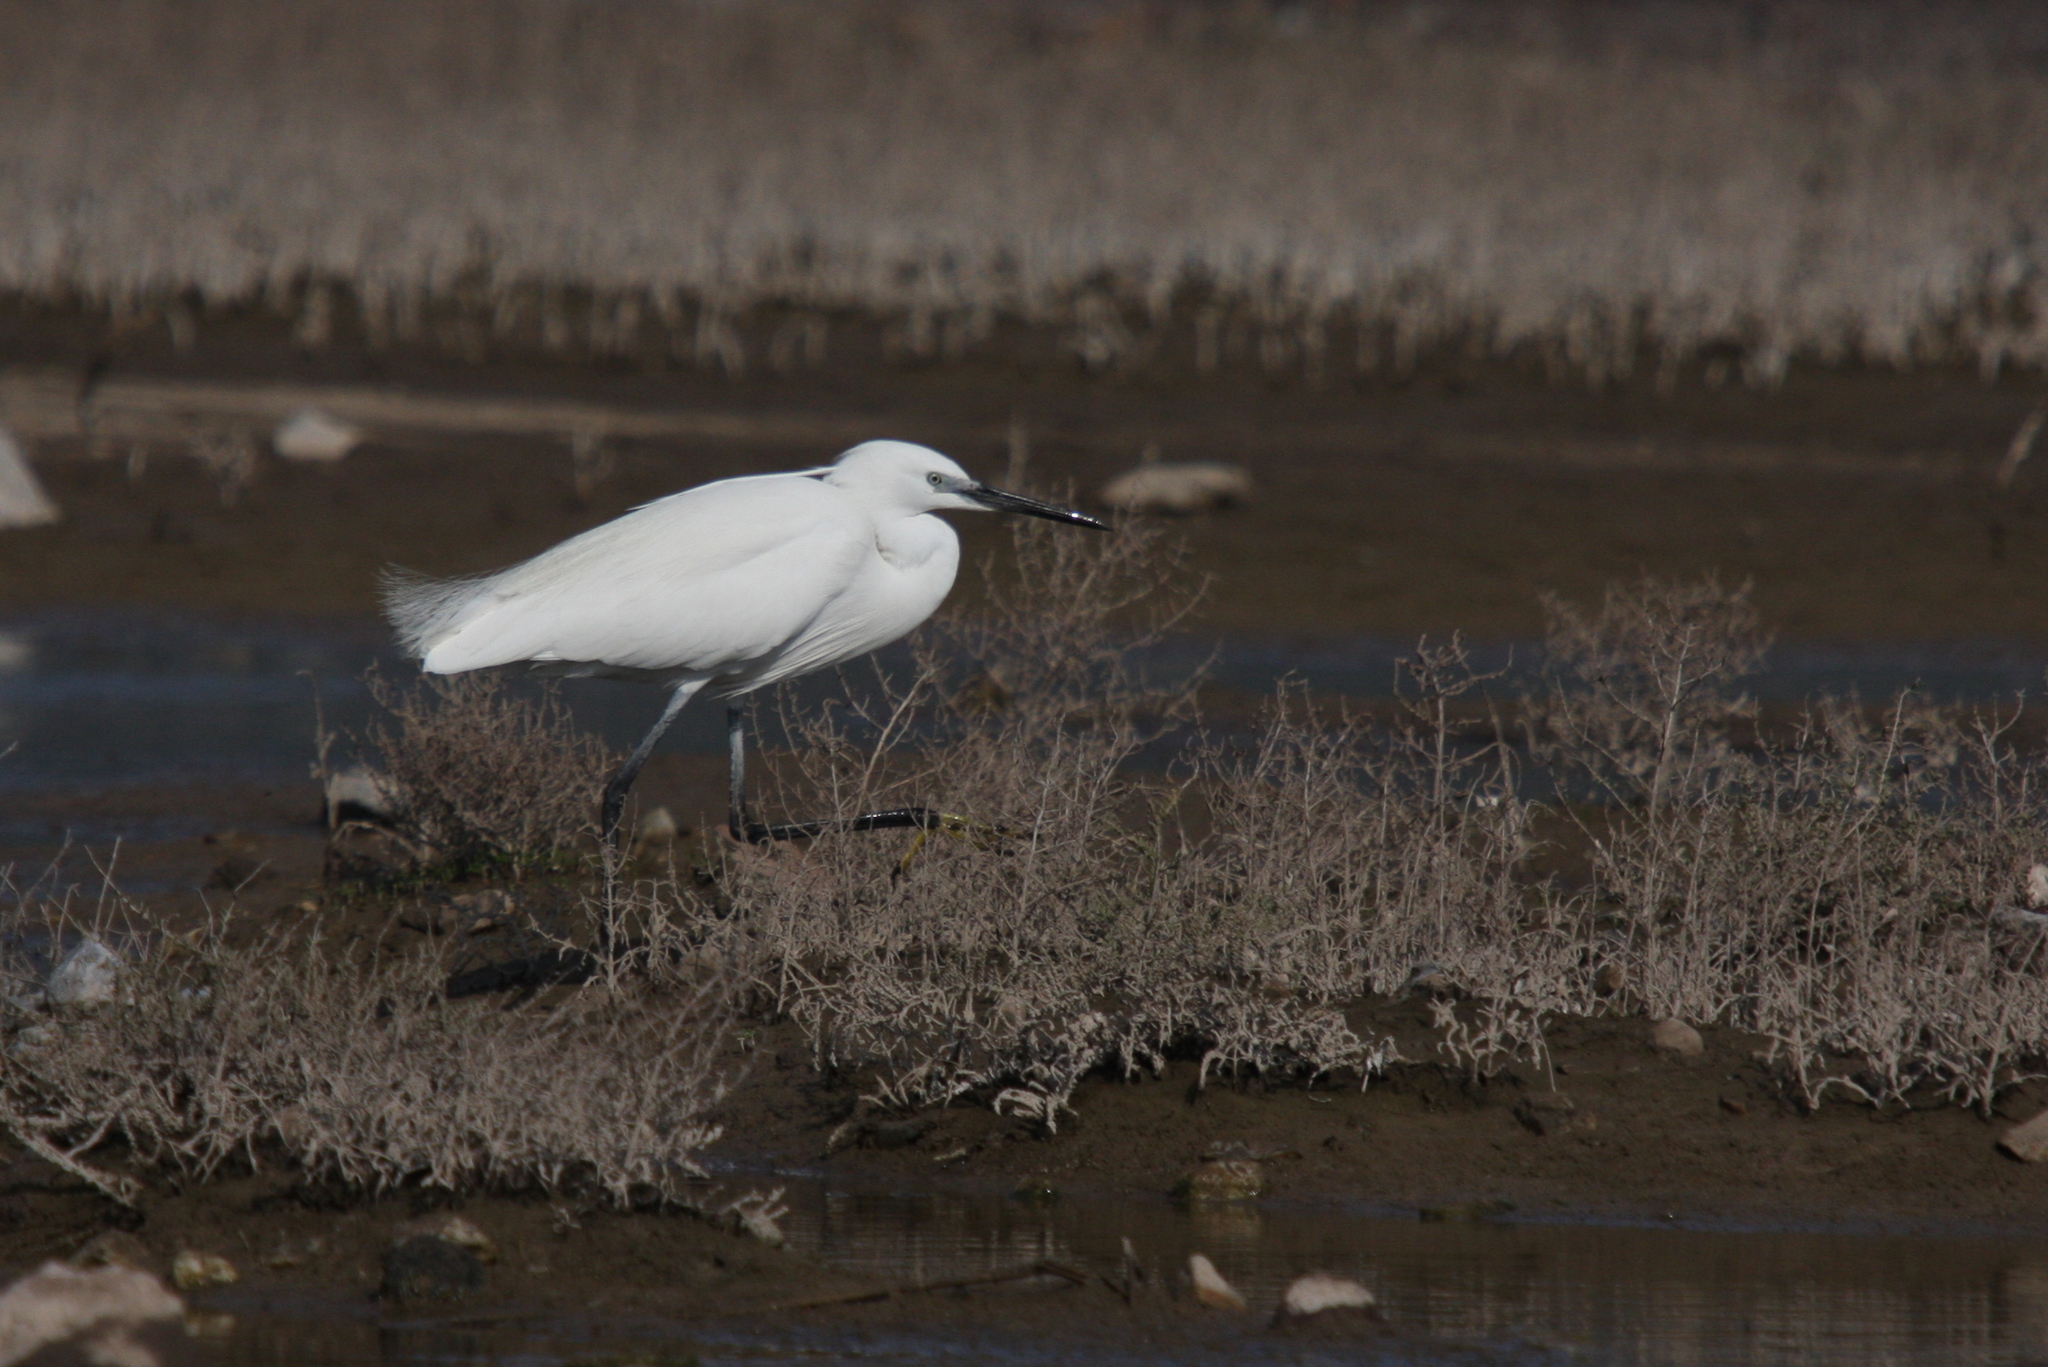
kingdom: Animalia
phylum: Chordata
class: Aves
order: Pelecaniformes
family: Ardeidae
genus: Egretta
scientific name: Egretta garzetta
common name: Little egret
